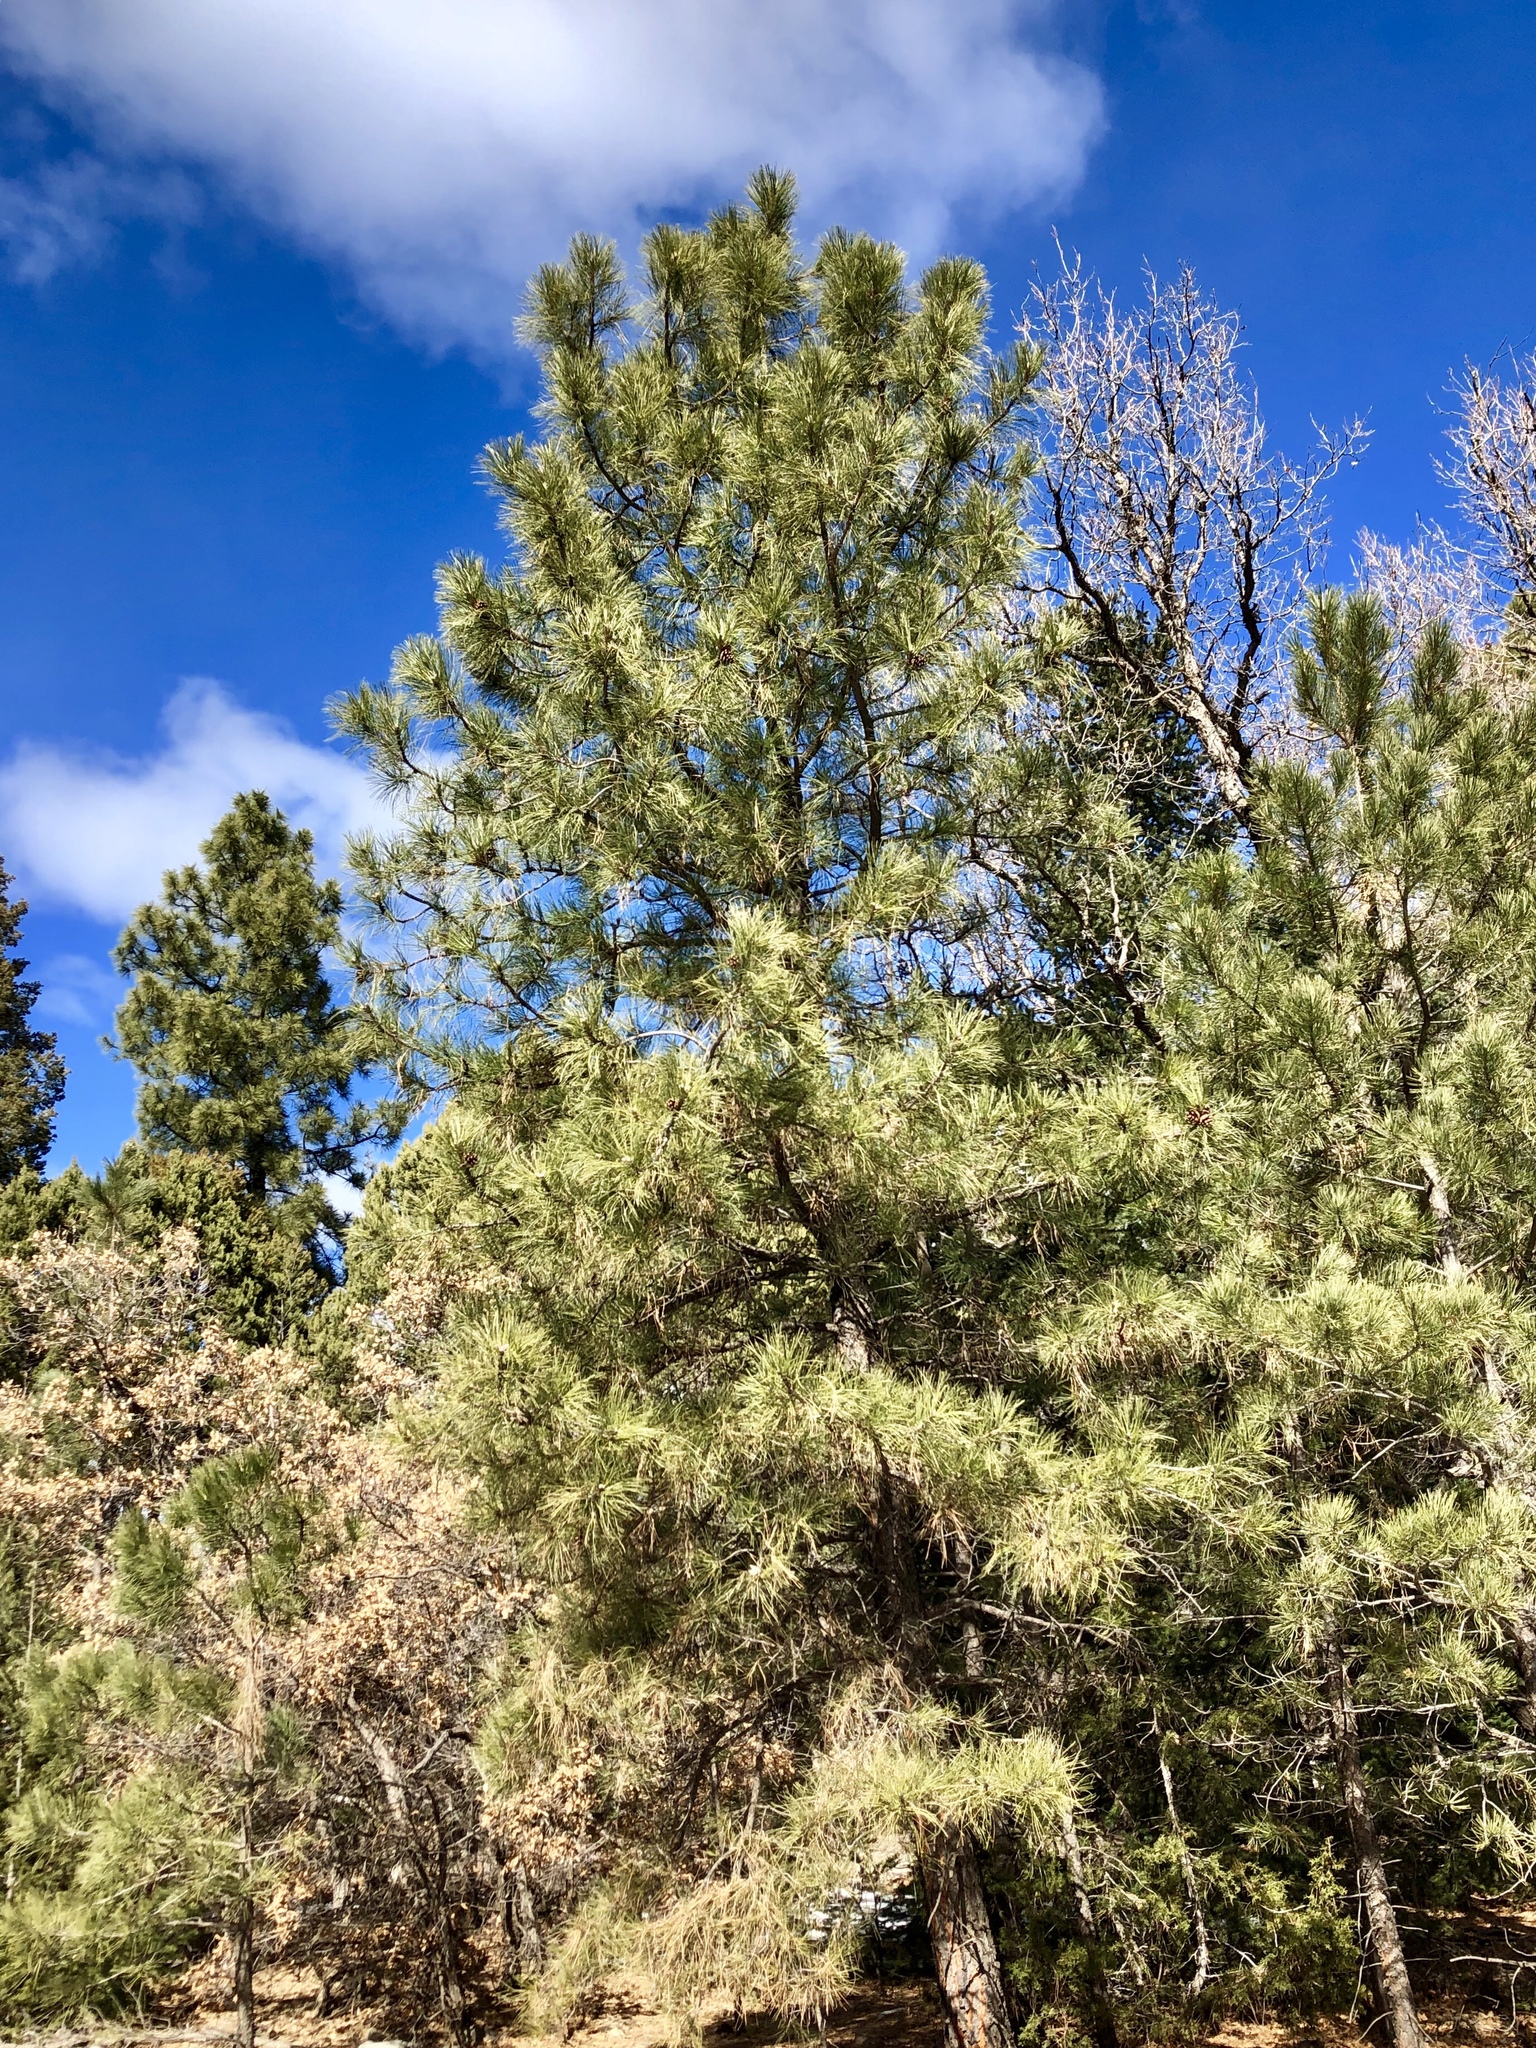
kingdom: Plantae
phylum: Tracheophyta
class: Pinopsida
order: Pinales
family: Pinaceae
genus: Pinus
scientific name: Pinus ponderosa
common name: Western yellow-pine
